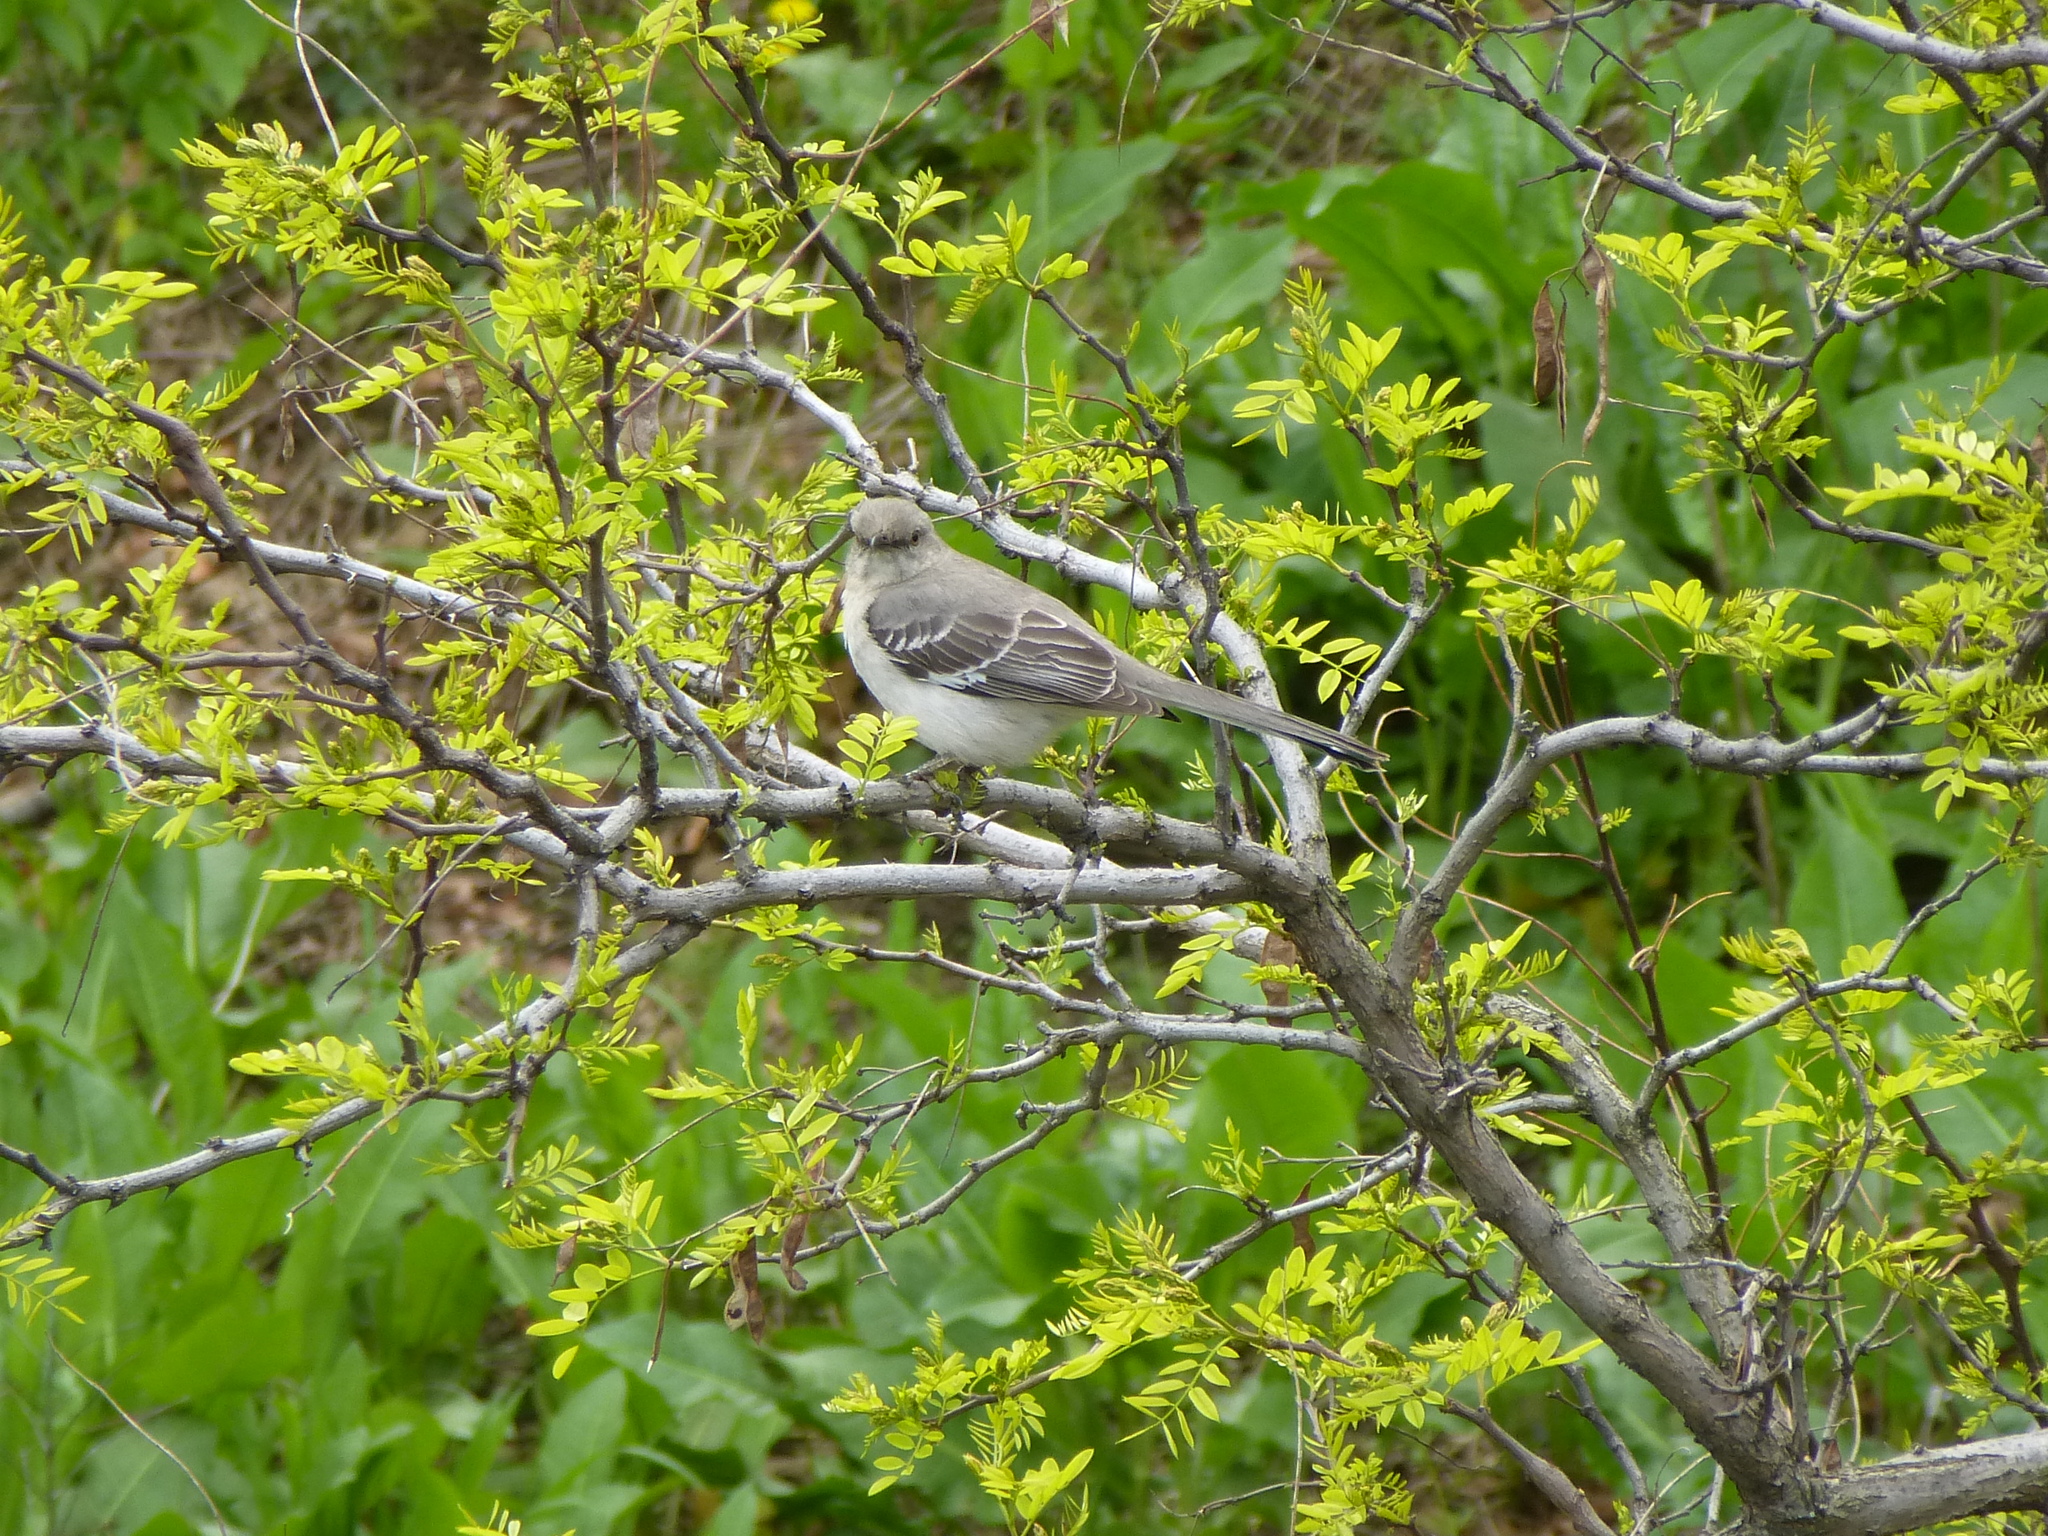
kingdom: Animalia
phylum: Chordata
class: Aves
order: Passeriformes
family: Mimidae
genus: Mimus
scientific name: Mimus polyglottos
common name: Northern mockingbird
